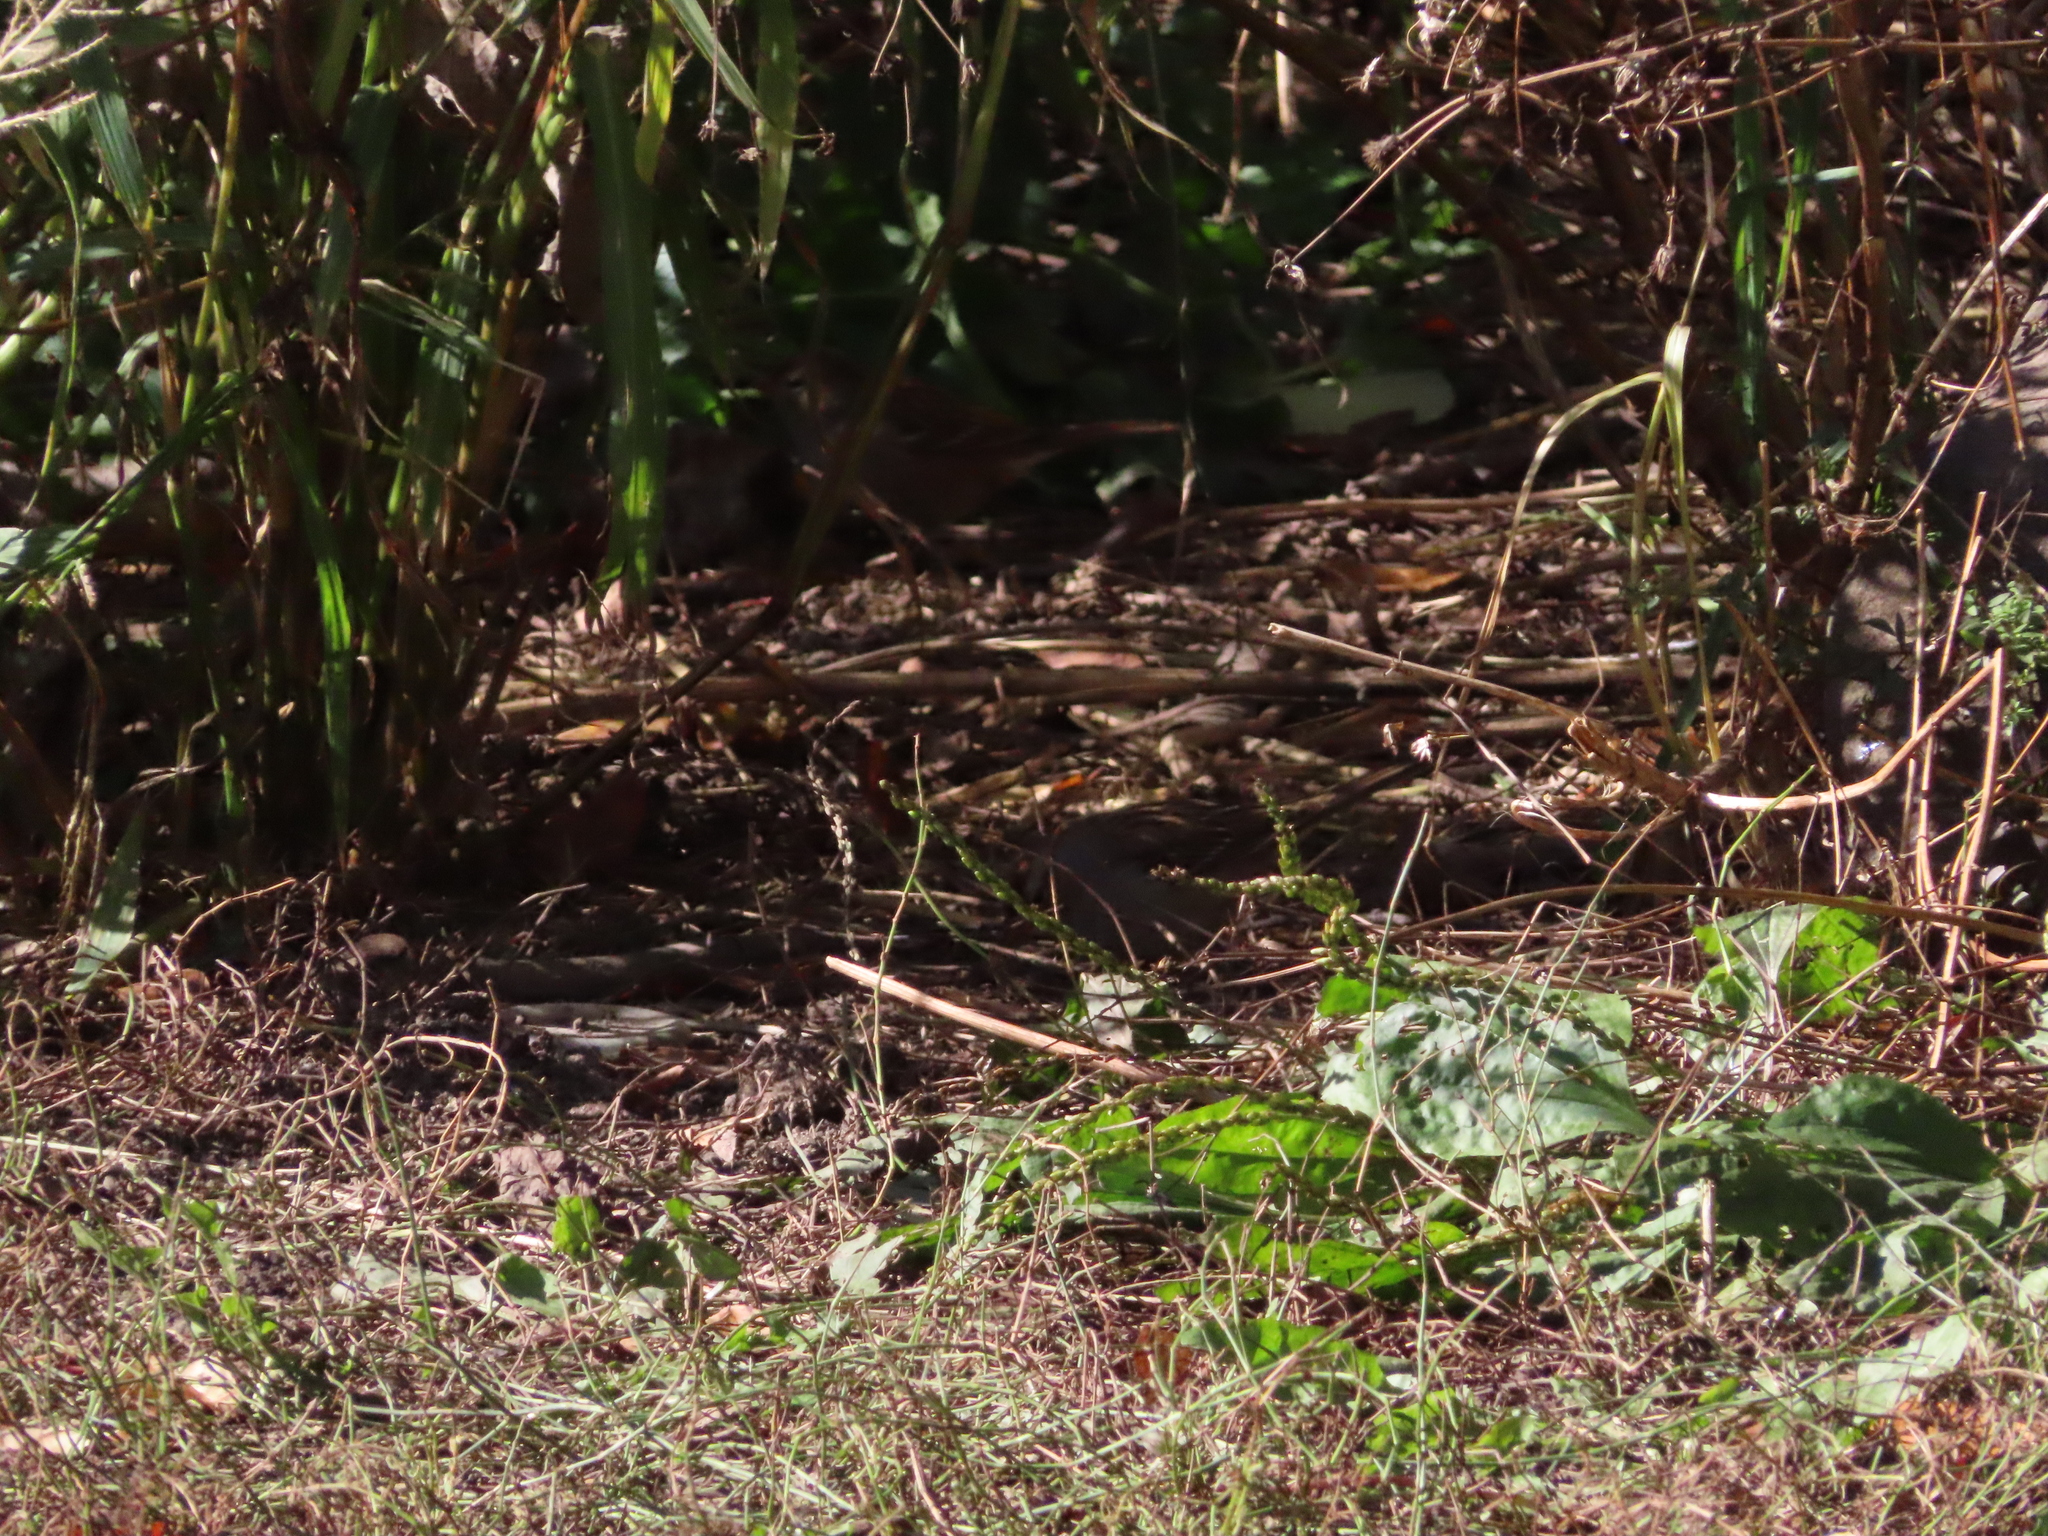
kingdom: Plantae
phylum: Tracheophyta
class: Magnoliopsida
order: Lamiales
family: Plantaginaceae
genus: Plantago
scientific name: Plantago major
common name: Common plantain
